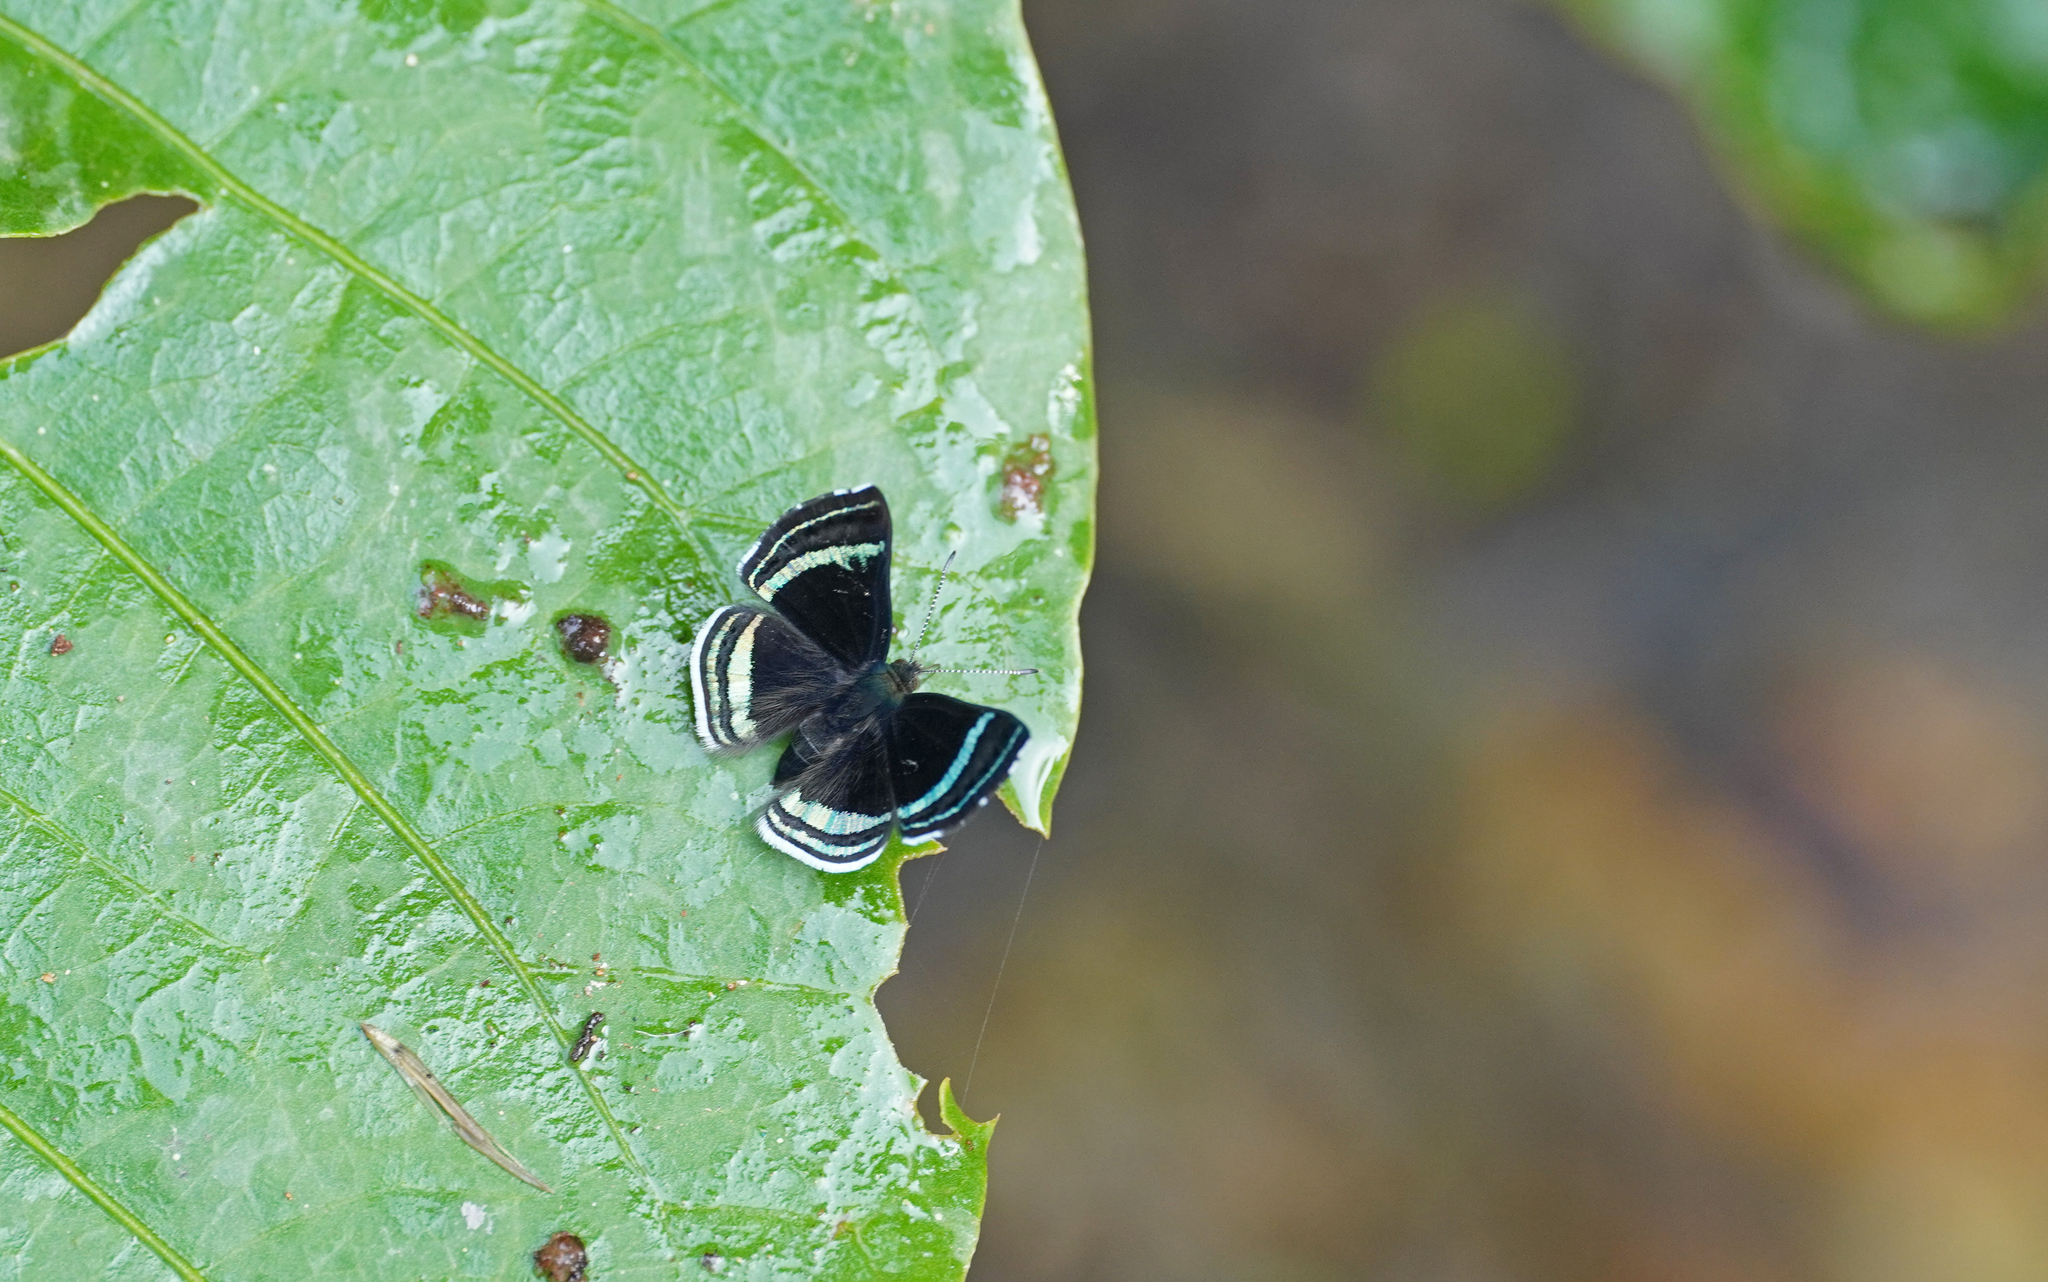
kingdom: Animalia
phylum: Arthropoda
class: Insecta
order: Lepidoptera
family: Riodinidae
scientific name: Riodinidae
